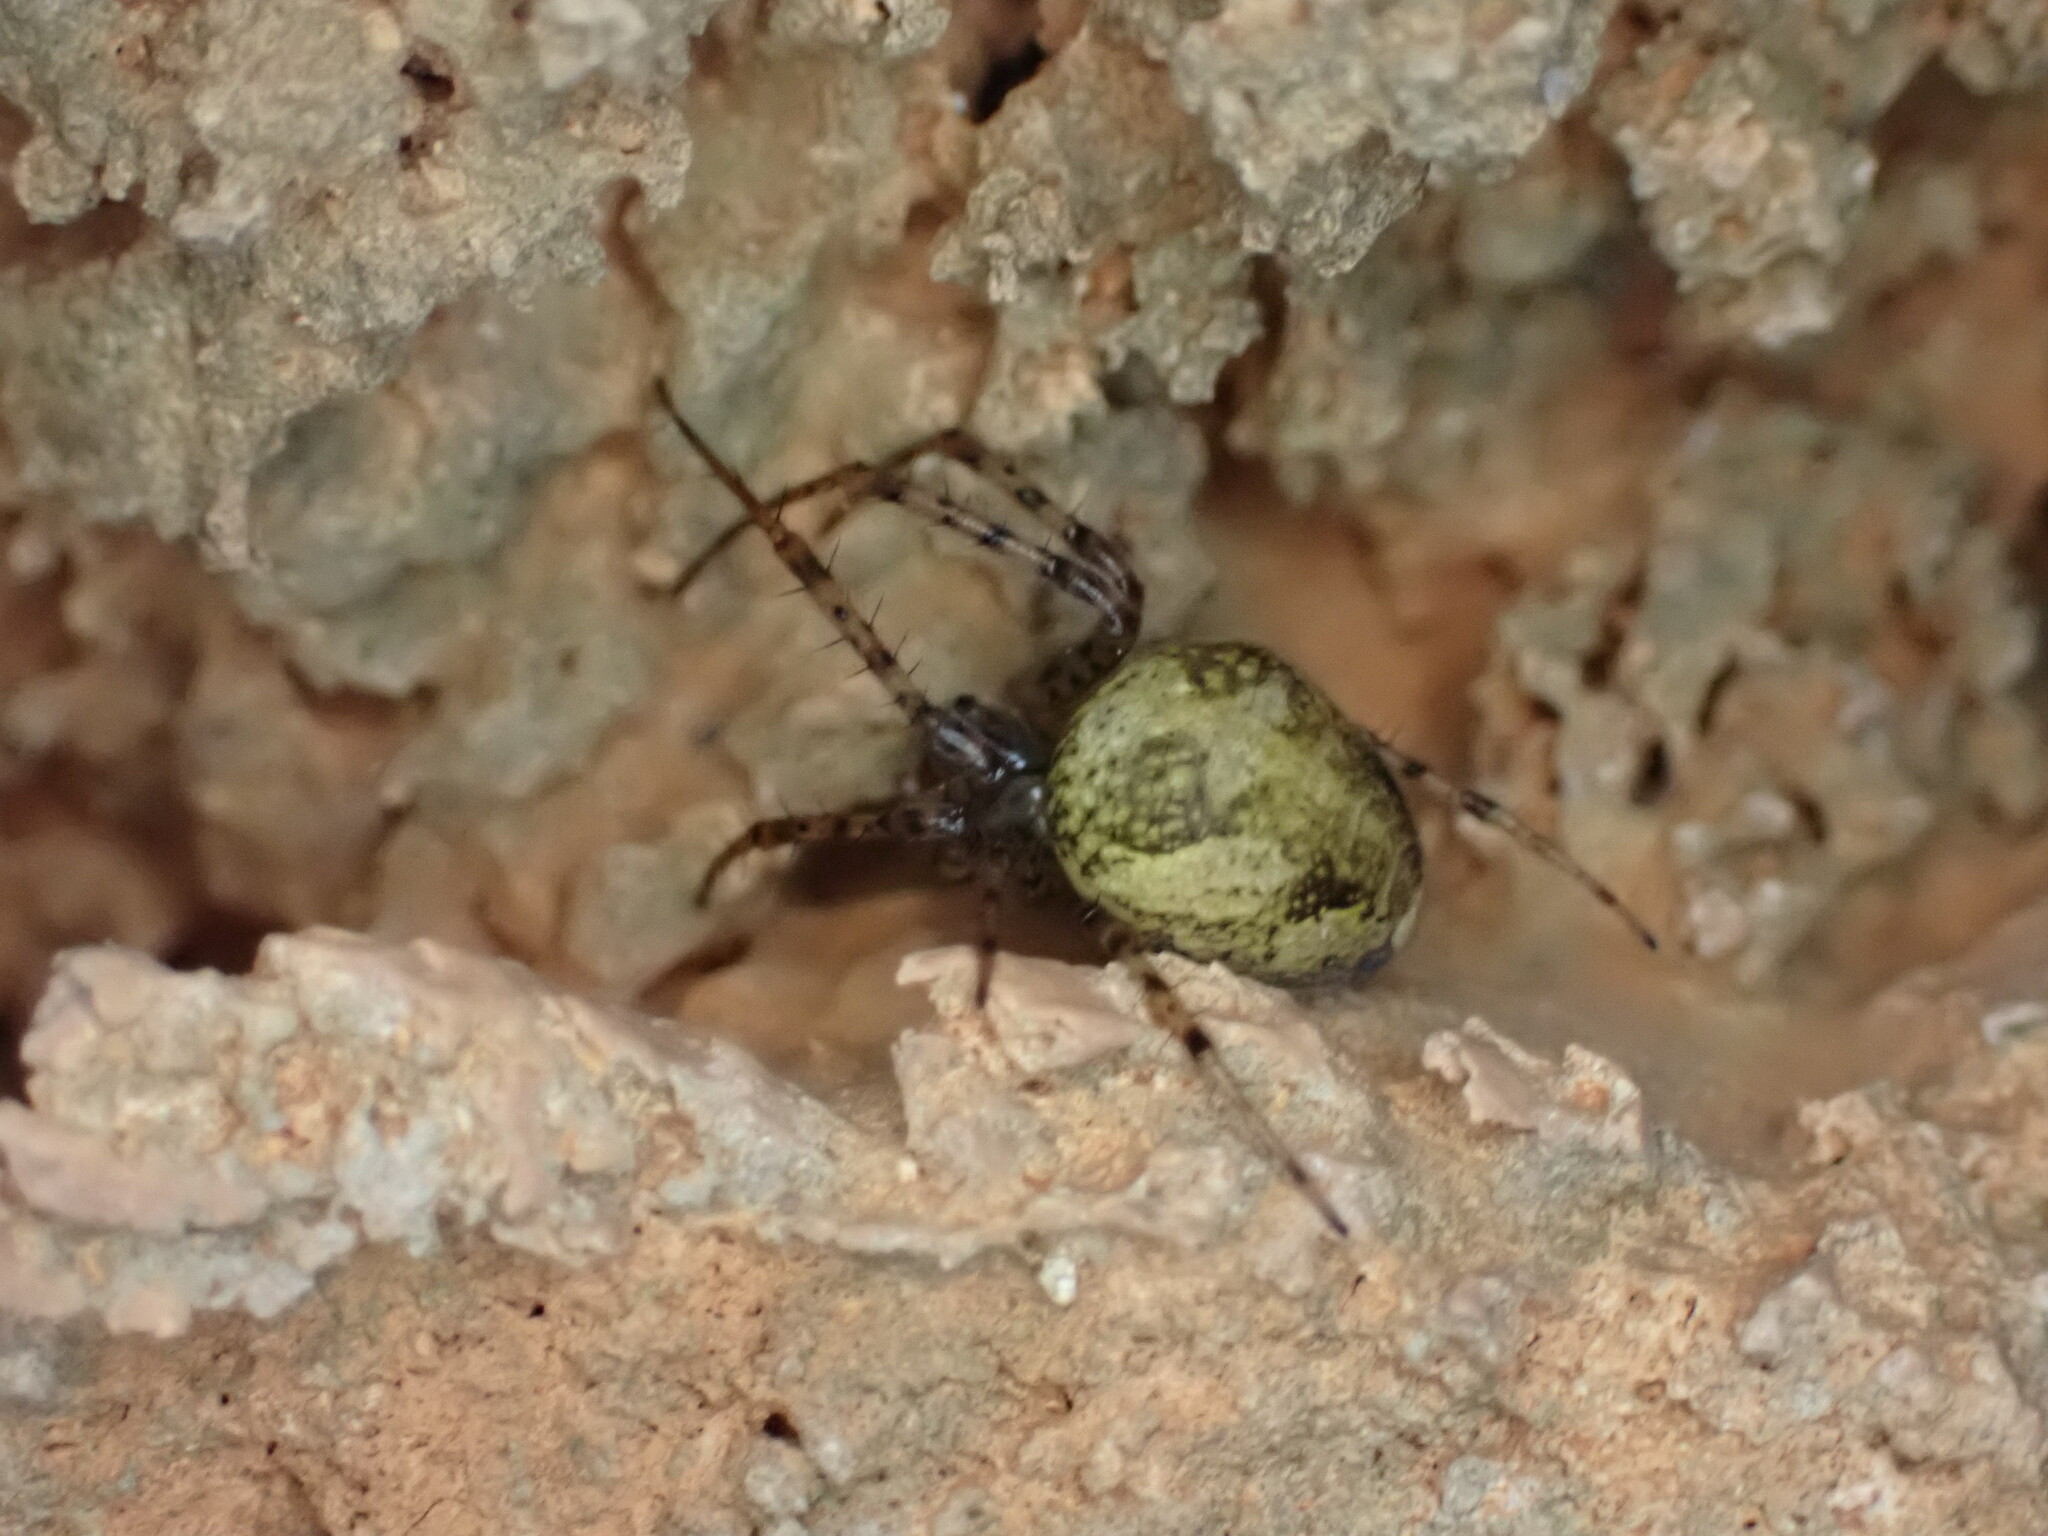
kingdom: Animalia
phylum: Arthropoda
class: Arachnida
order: Araneae
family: Tetragnathidae
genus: Metellina
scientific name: Metellina merianae
